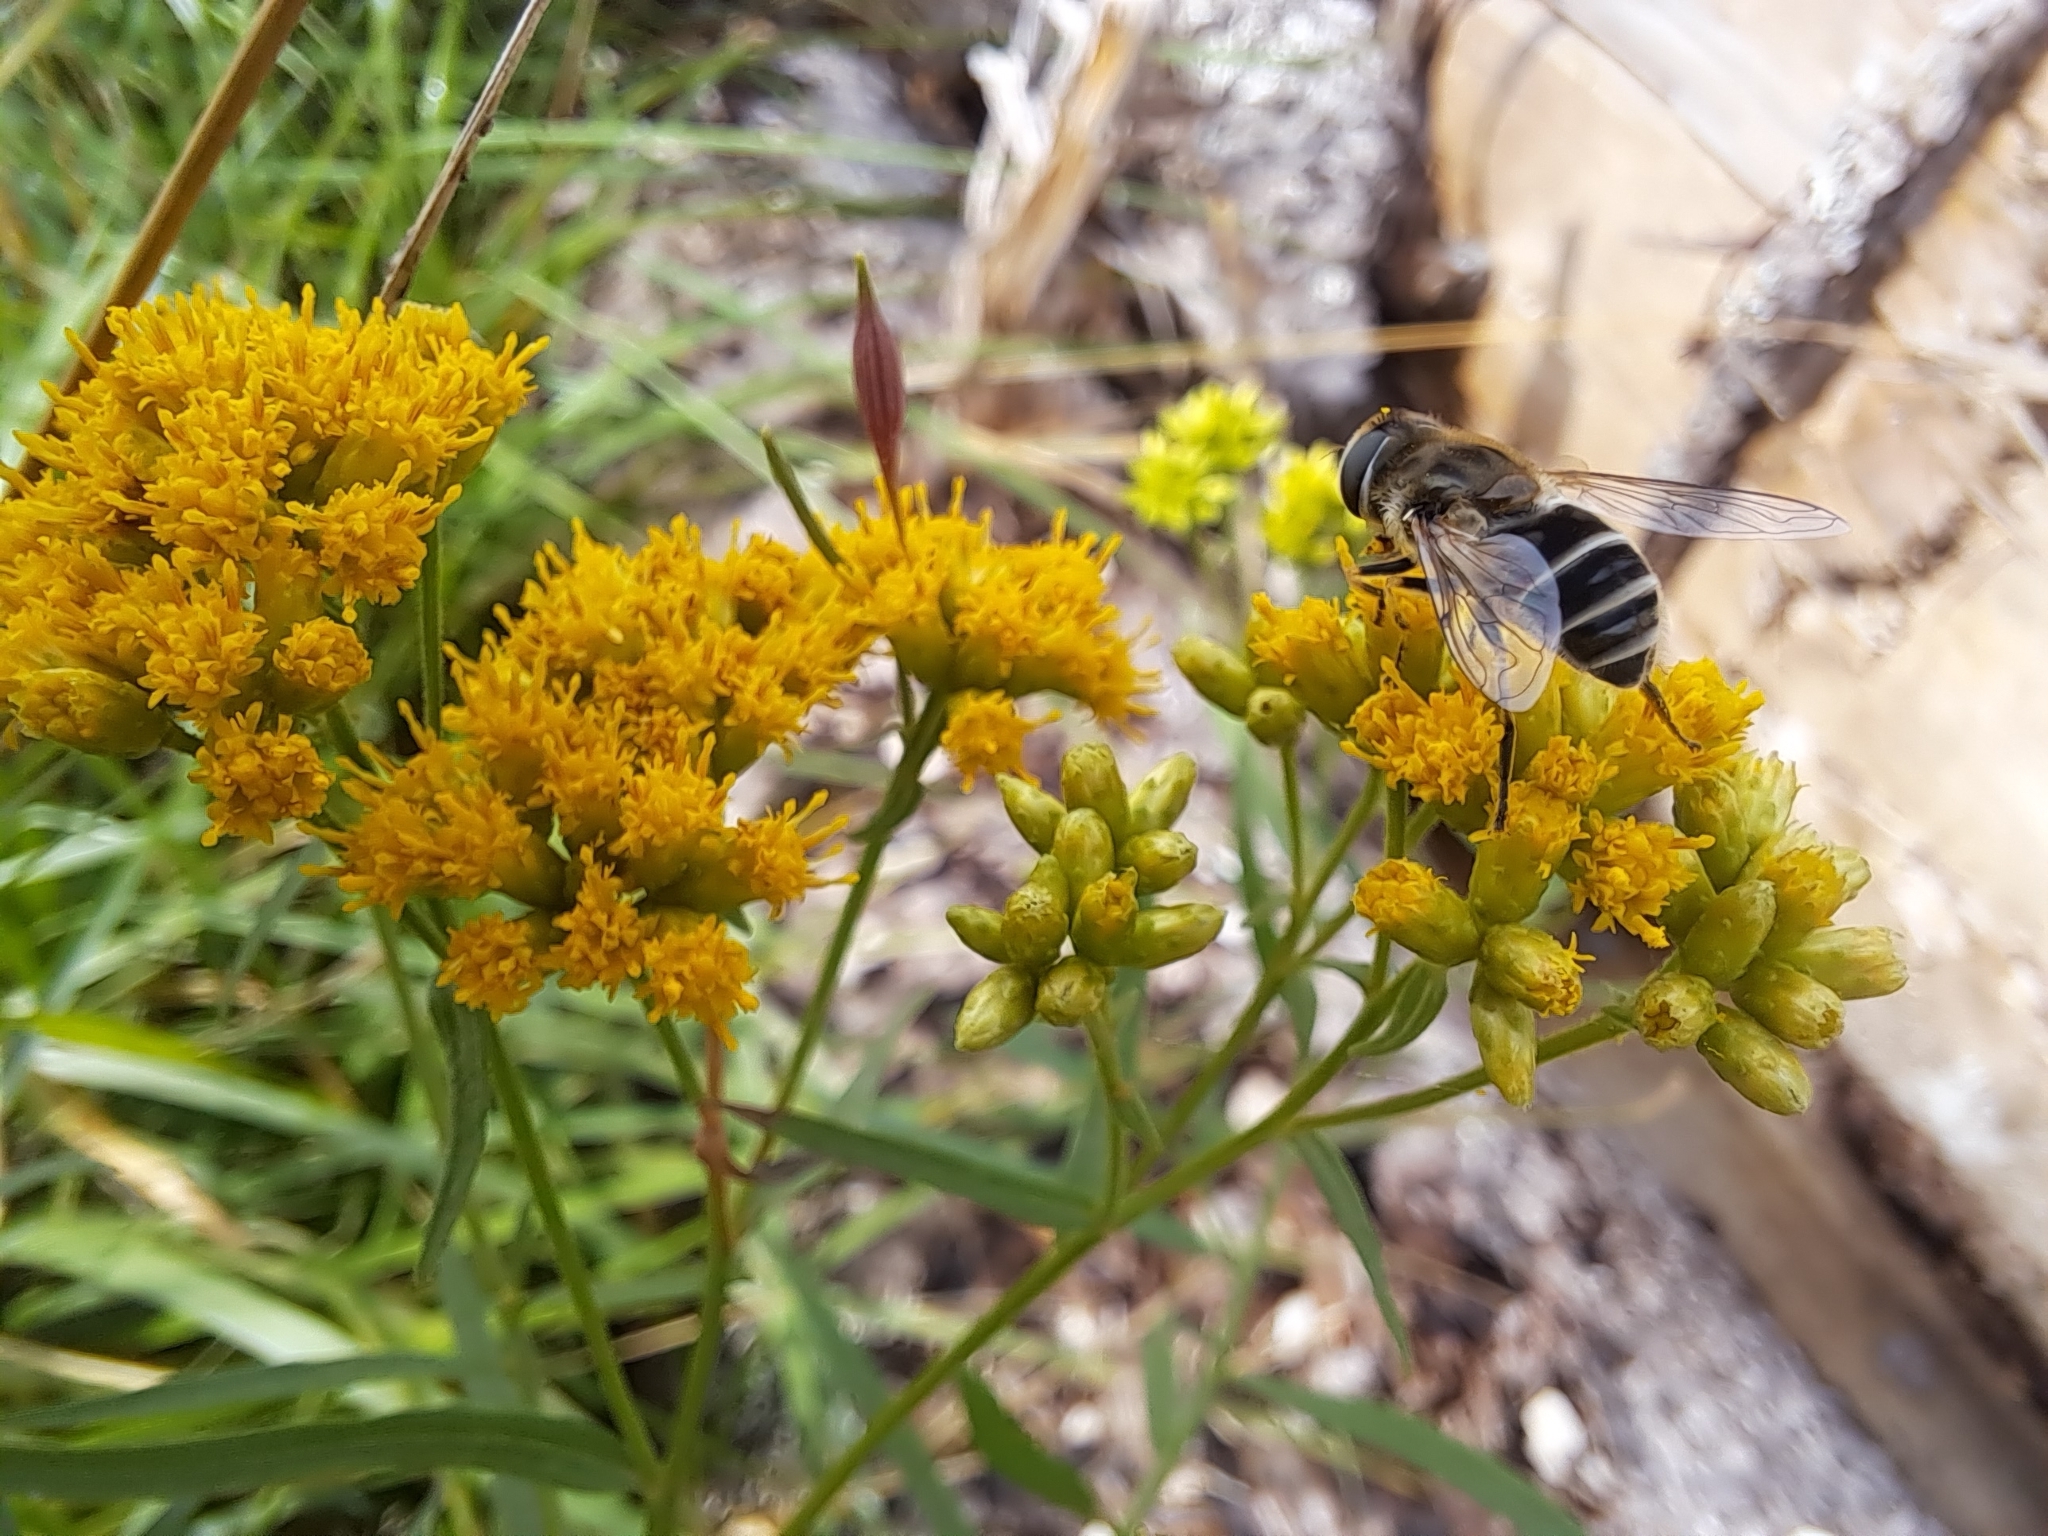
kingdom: Animalia
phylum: Arthropoda
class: Insecta
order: Diptera
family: Syrphidae
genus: Eristalis
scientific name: Eristalis arbustorum
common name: Hover fly
